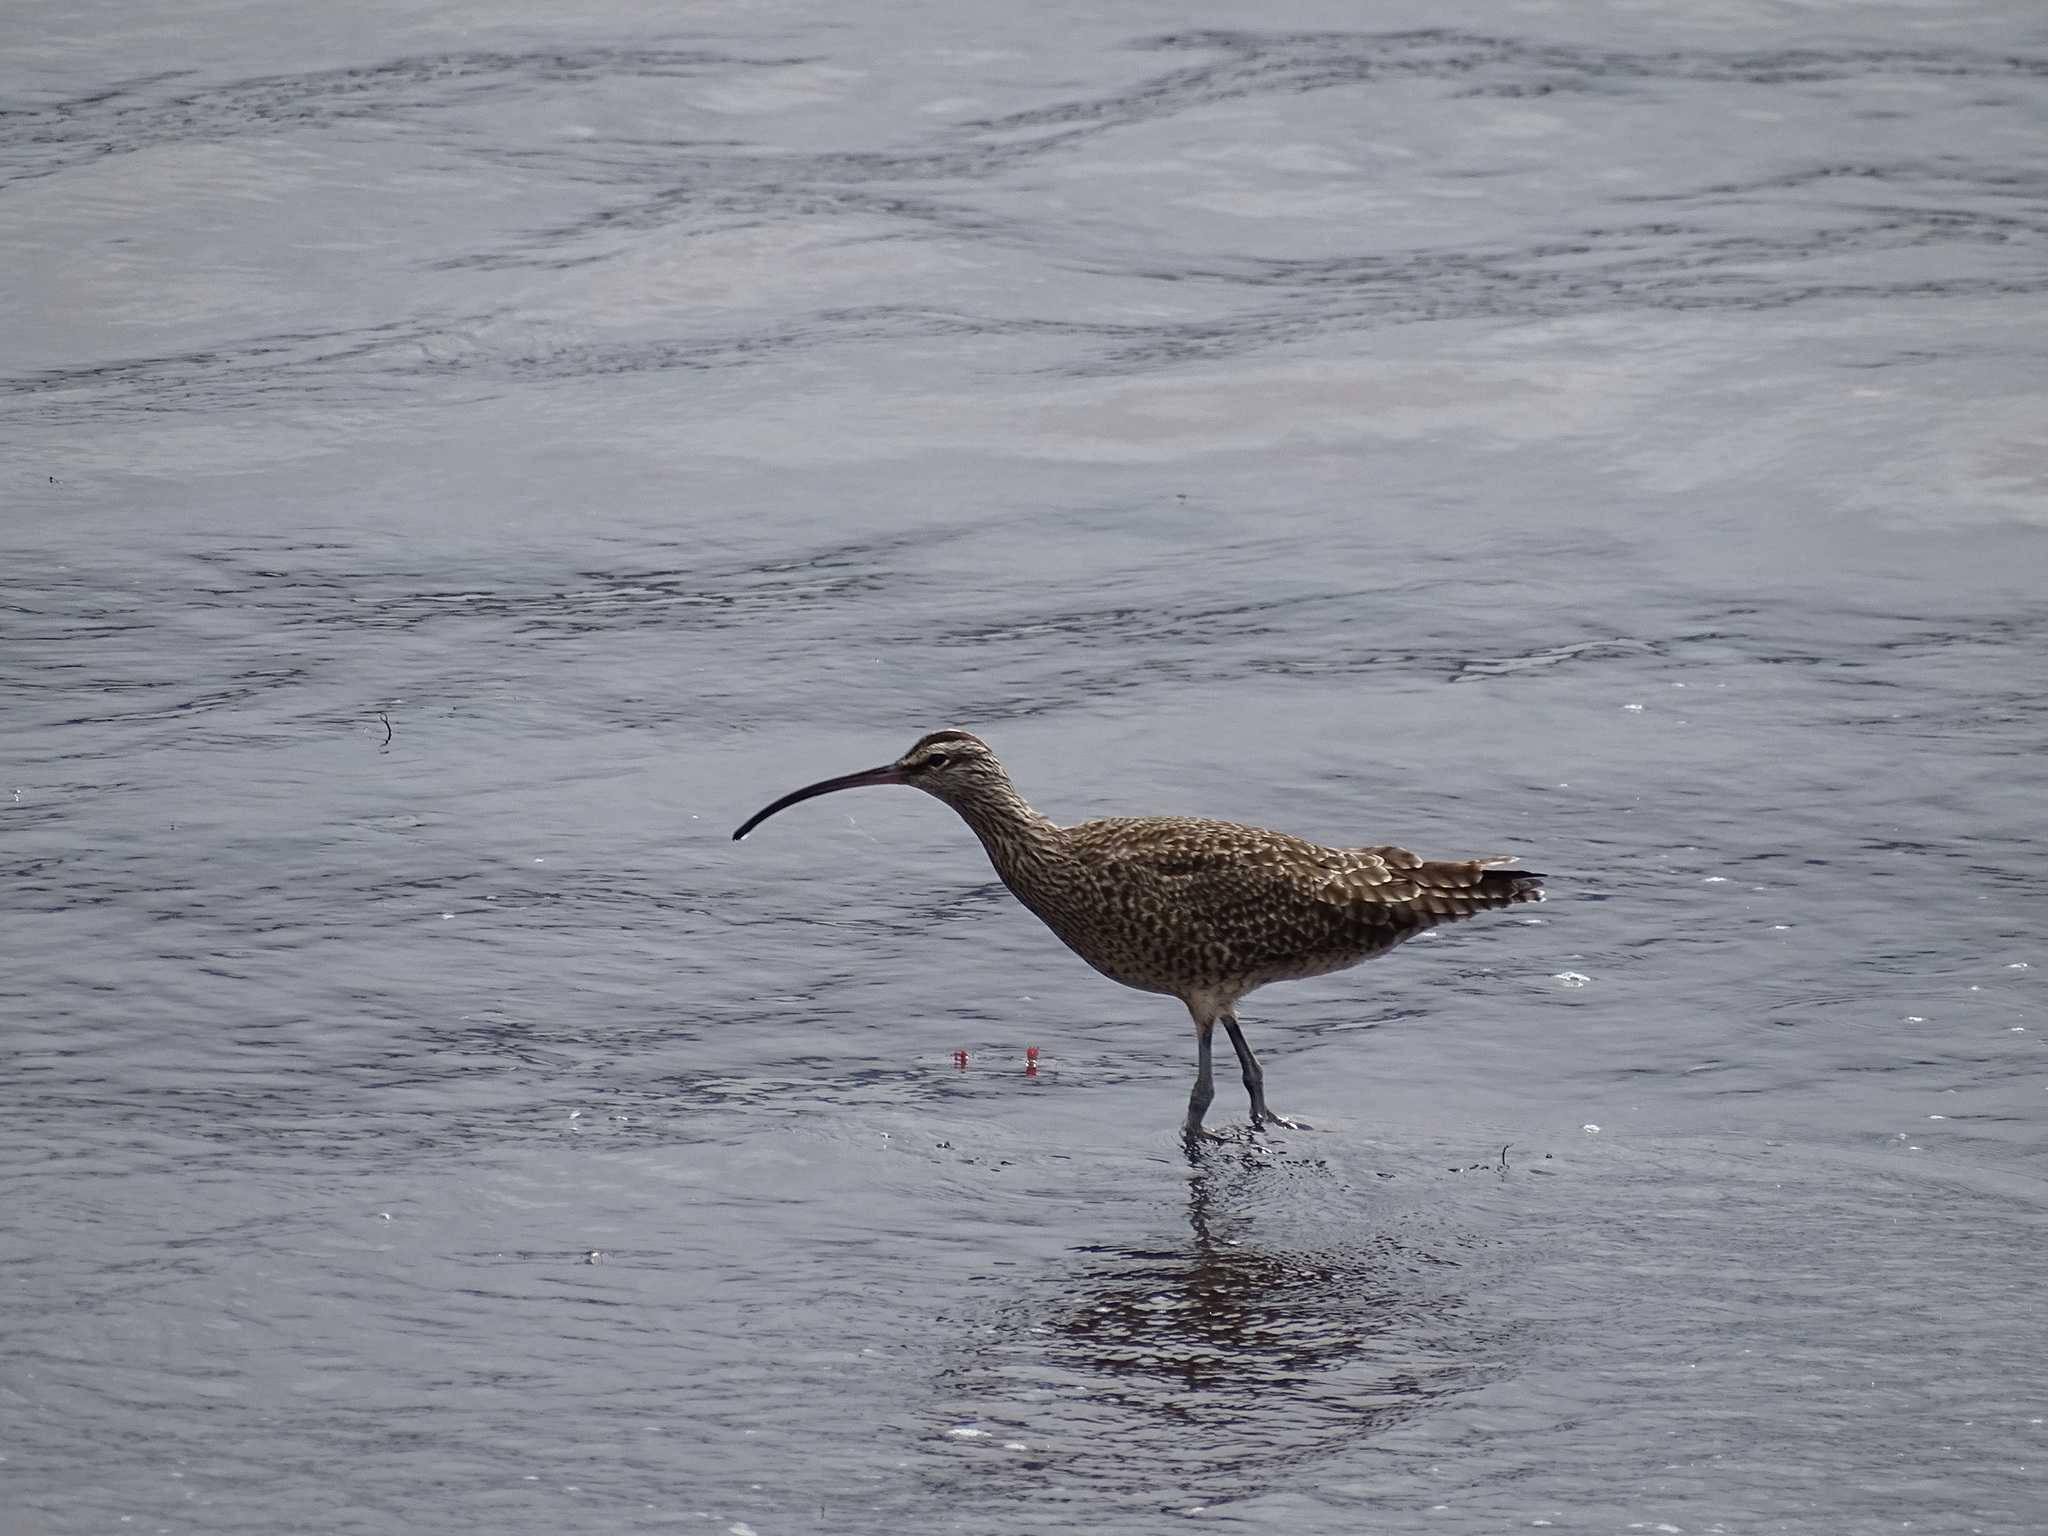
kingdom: Animalia
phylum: Chordata
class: Aves
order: Charadriiformes
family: Scolopacidae
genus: Numenius
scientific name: Numenius phaeopus
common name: Whimbrel
